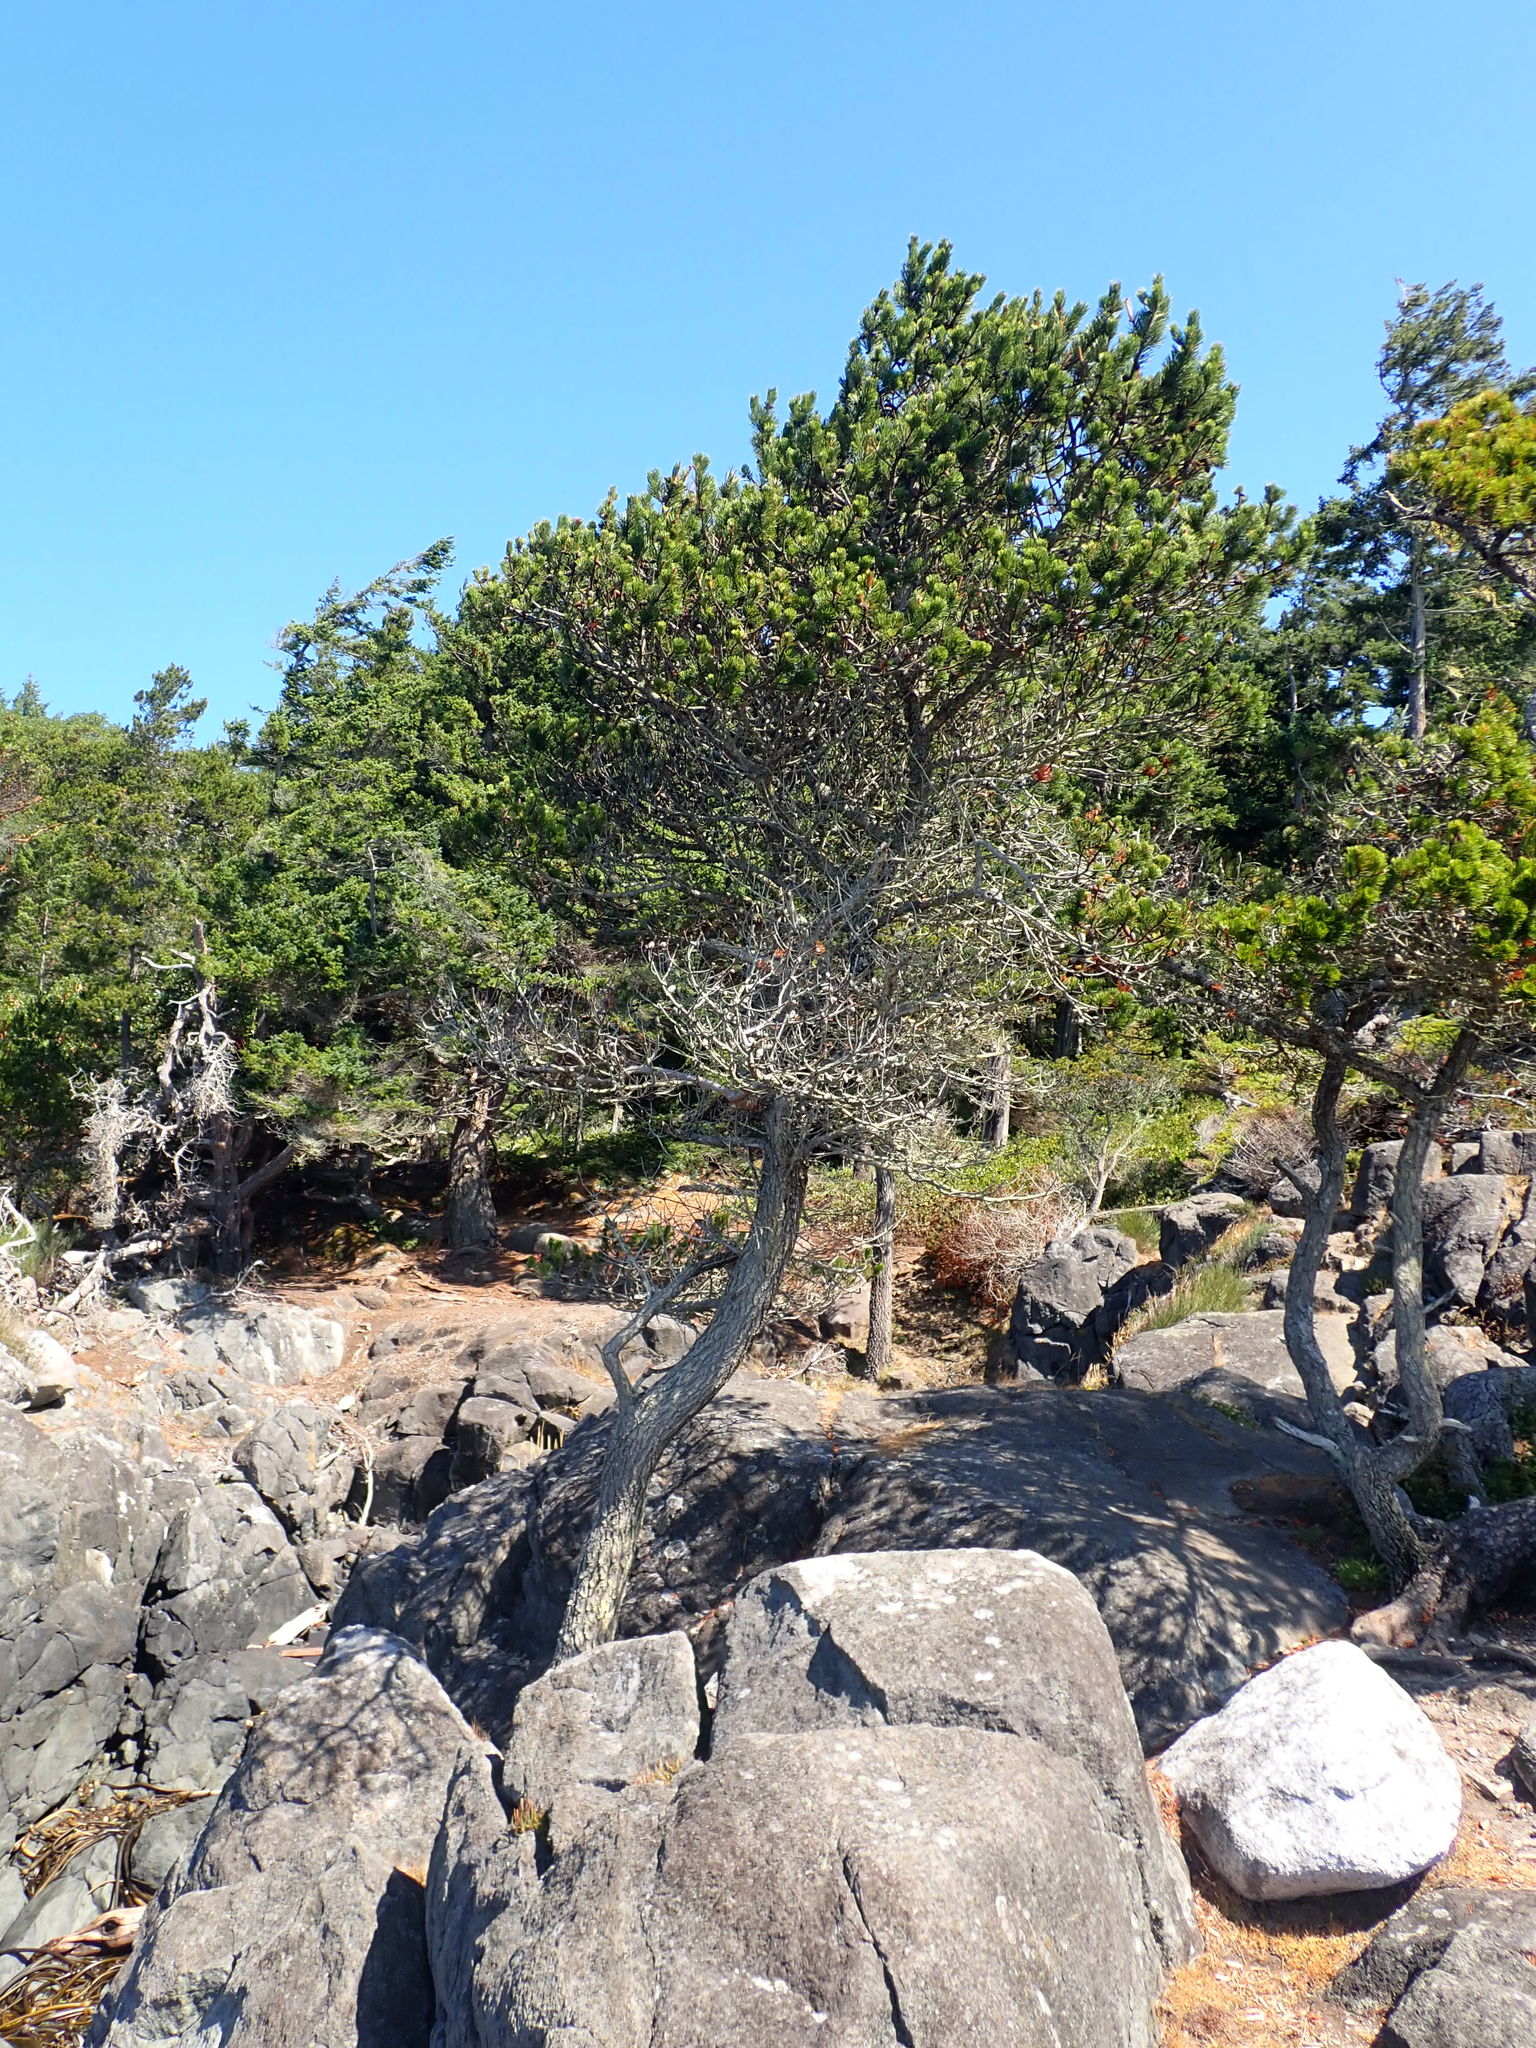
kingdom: Plantae
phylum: Tracheophyta
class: Pinopsida
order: Pinales
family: Pinaceae
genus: Pinus
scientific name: Pinus contorta
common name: Lodgepole pine
